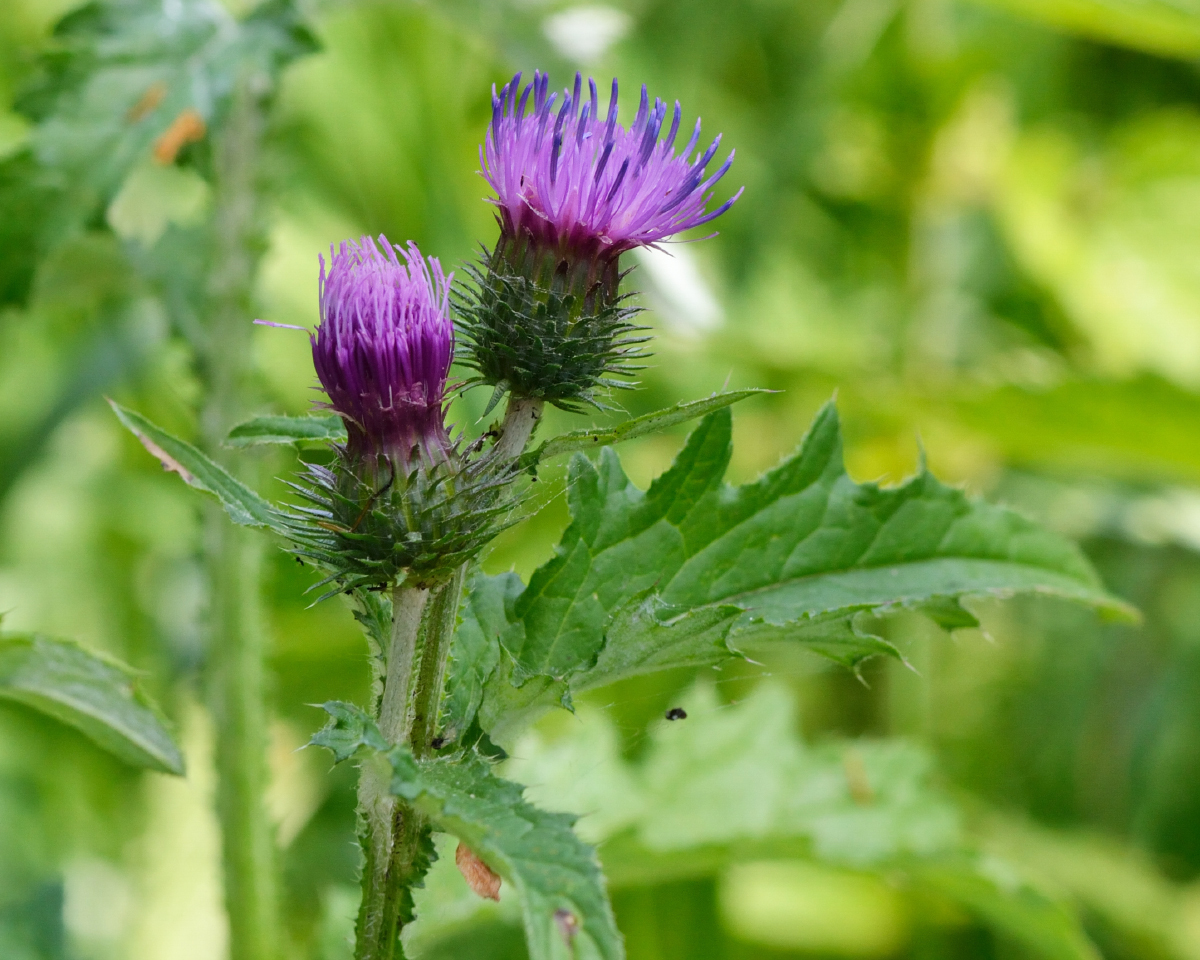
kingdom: Plantae
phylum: Tracheophyta
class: Magnoliopsida
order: Asterales
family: Asteraceae
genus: Carduus
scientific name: Carduus crispus
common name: Welted thistle
